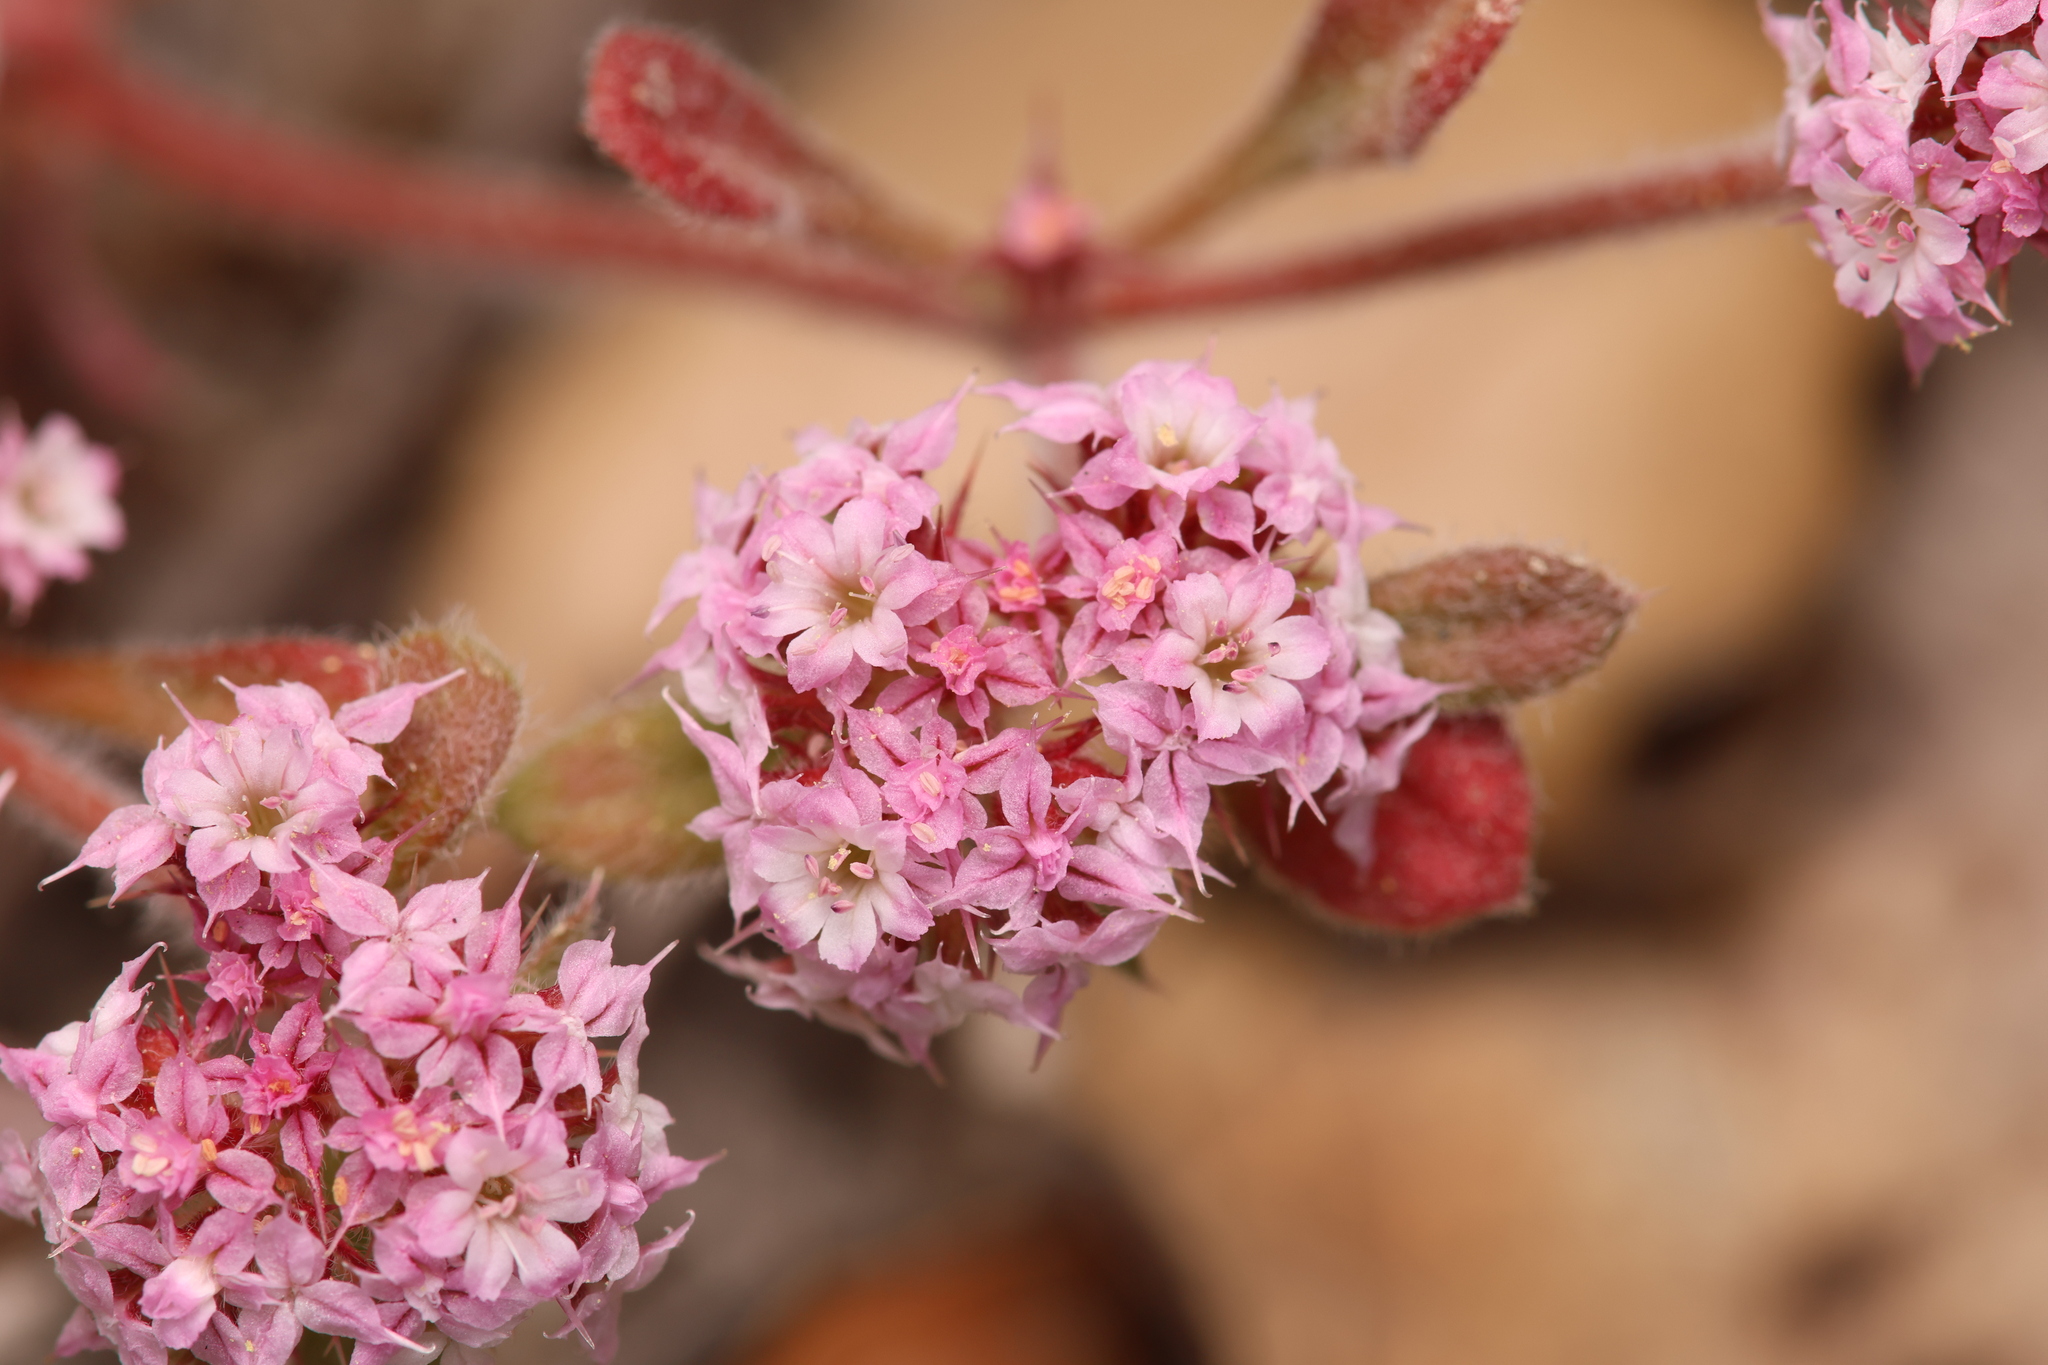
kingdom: Plantae
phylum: Tracheophyta
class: Magnoliopsida
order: Caryophyllales
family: Polygonaceae
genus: Chorizanthe
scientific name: Chorizanthe pungens
